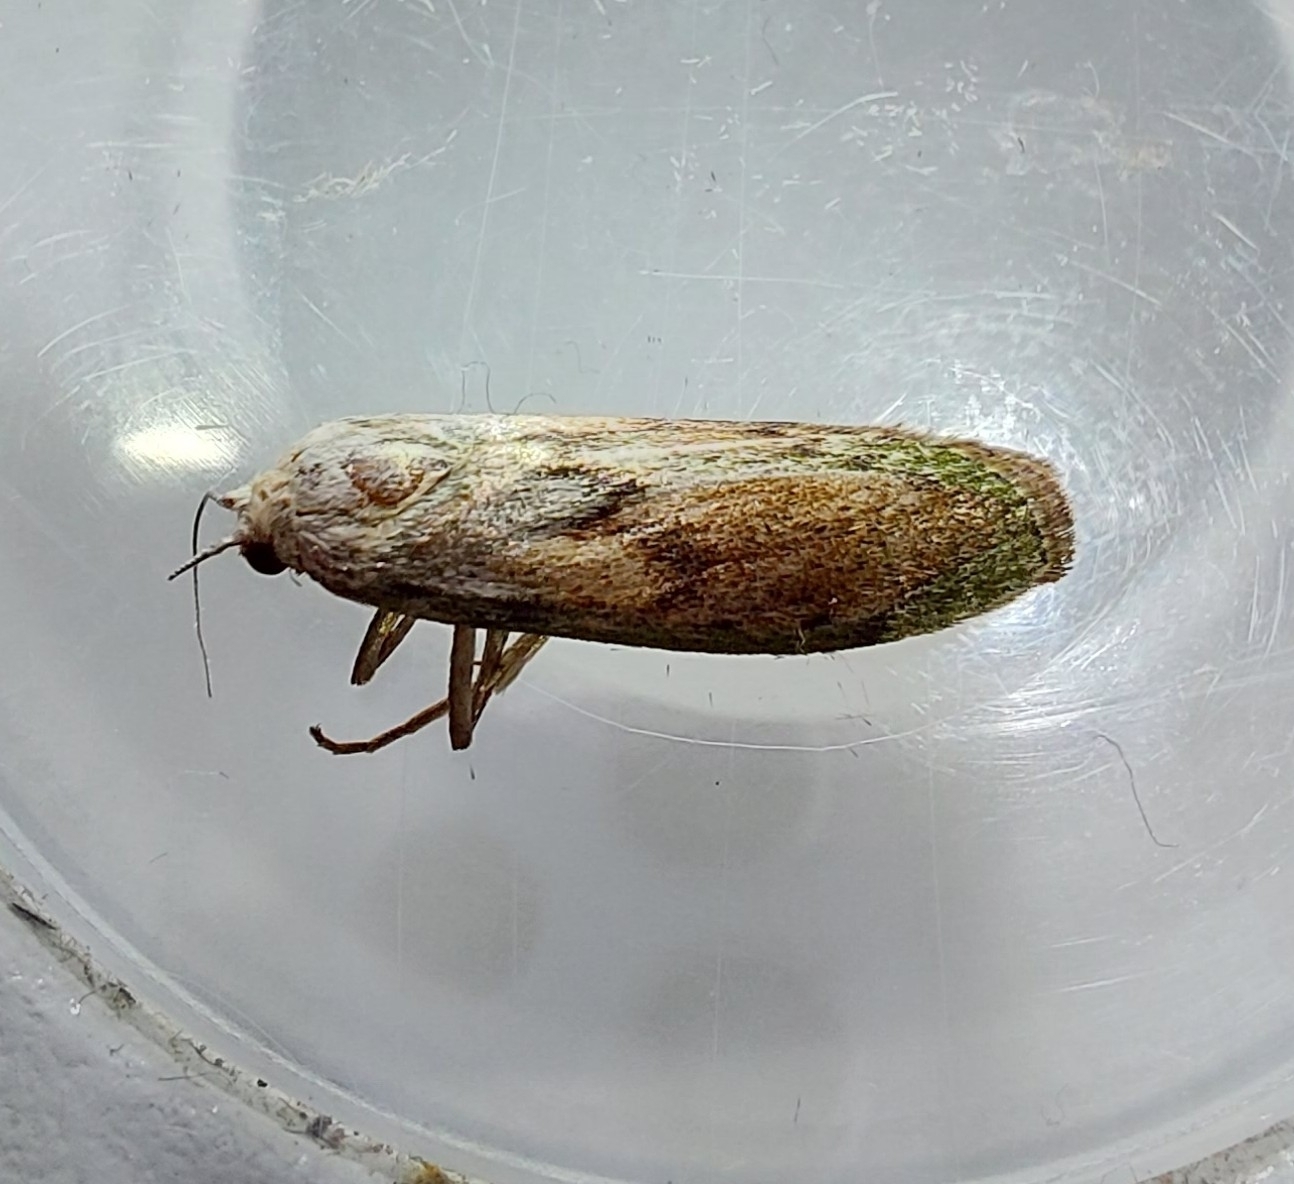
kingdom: Animalia
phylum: Arthropoda
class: Insecta
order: Lepidoptera
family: Pyralidae
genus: Aphomia
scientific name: Aphomia sociella
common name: Bee moth
